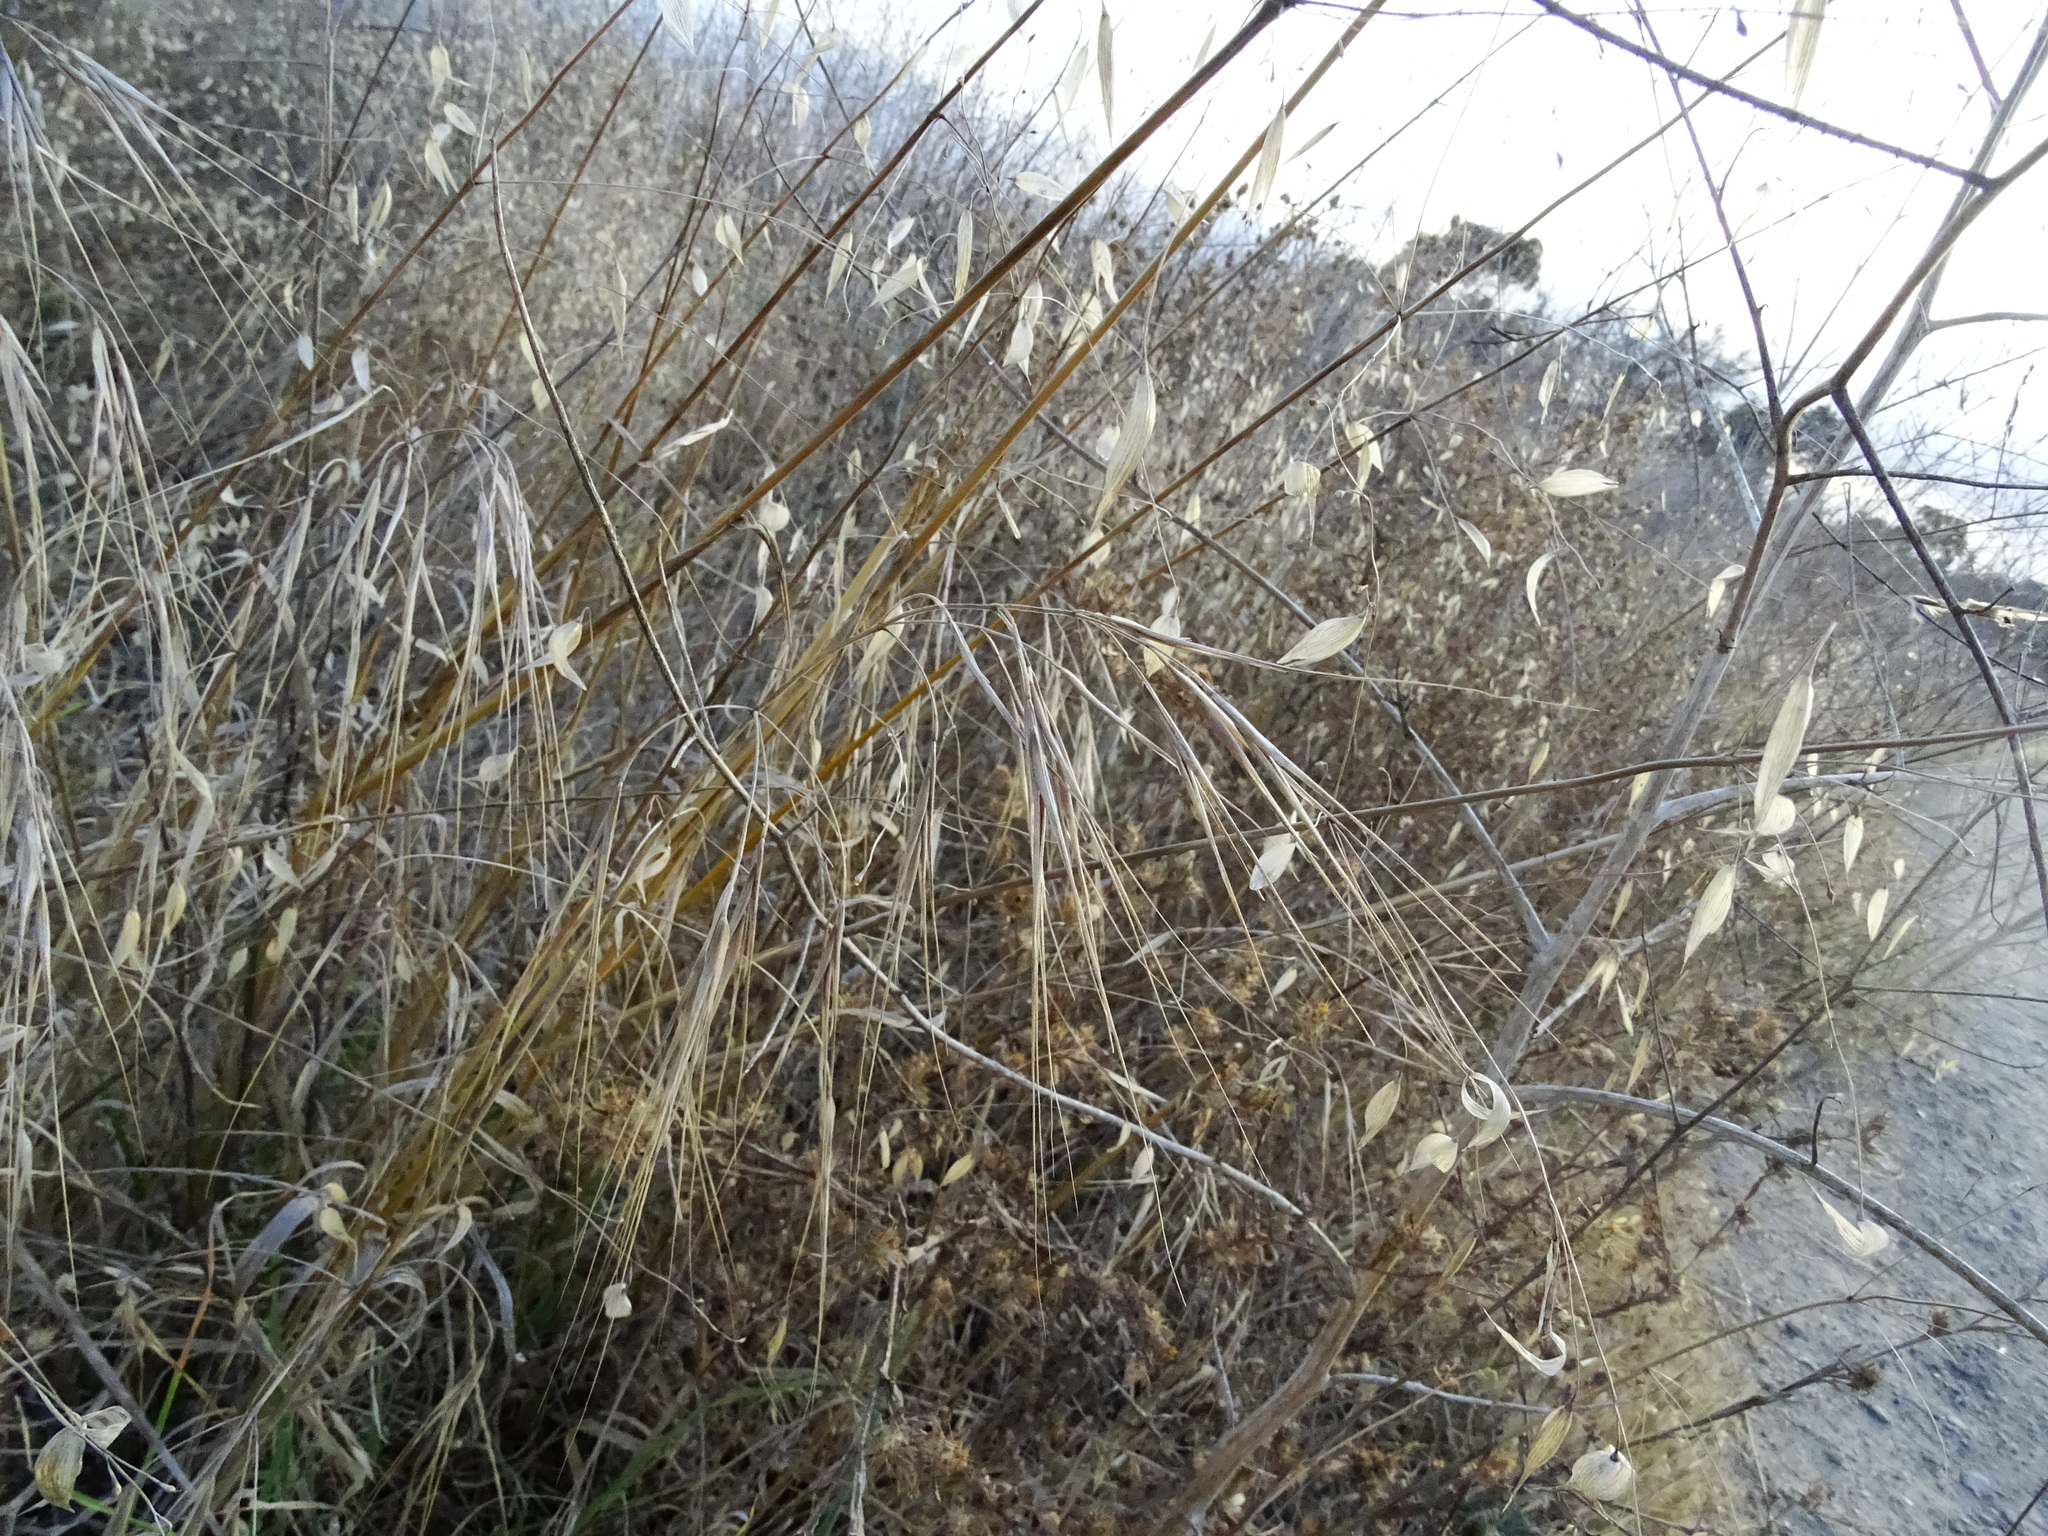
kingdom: Plantae
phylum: Tracheophyta
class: Liliopsida
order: Poales
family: Poaceae
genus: Bromus
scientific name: Bromus diandrus
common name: Ripgut brome
